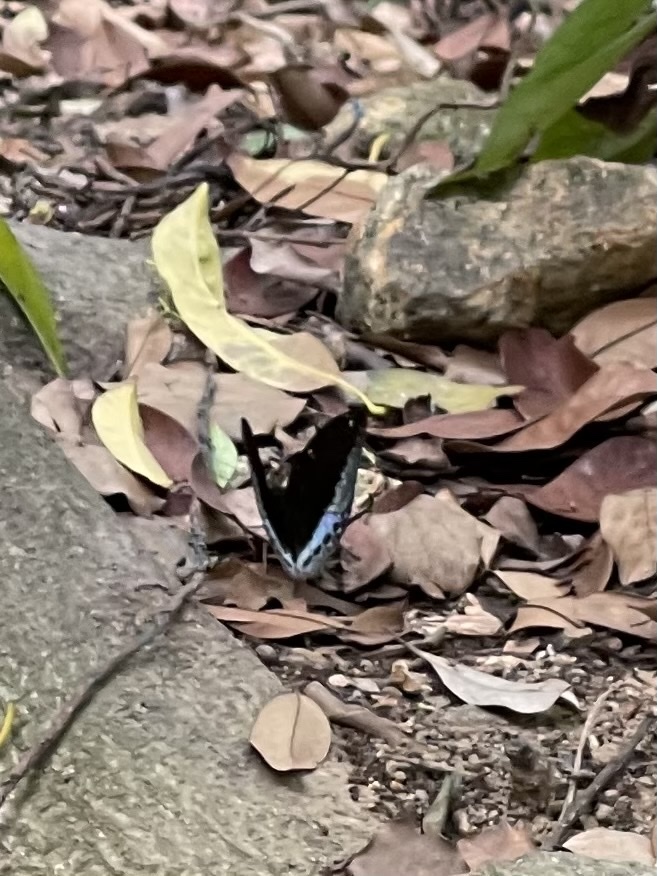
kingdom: Animalia
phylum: Arthropoda
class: Insecta
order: Lepidoptera
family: Nymphalidae
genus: Lexias
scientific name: Lexias pardalis
